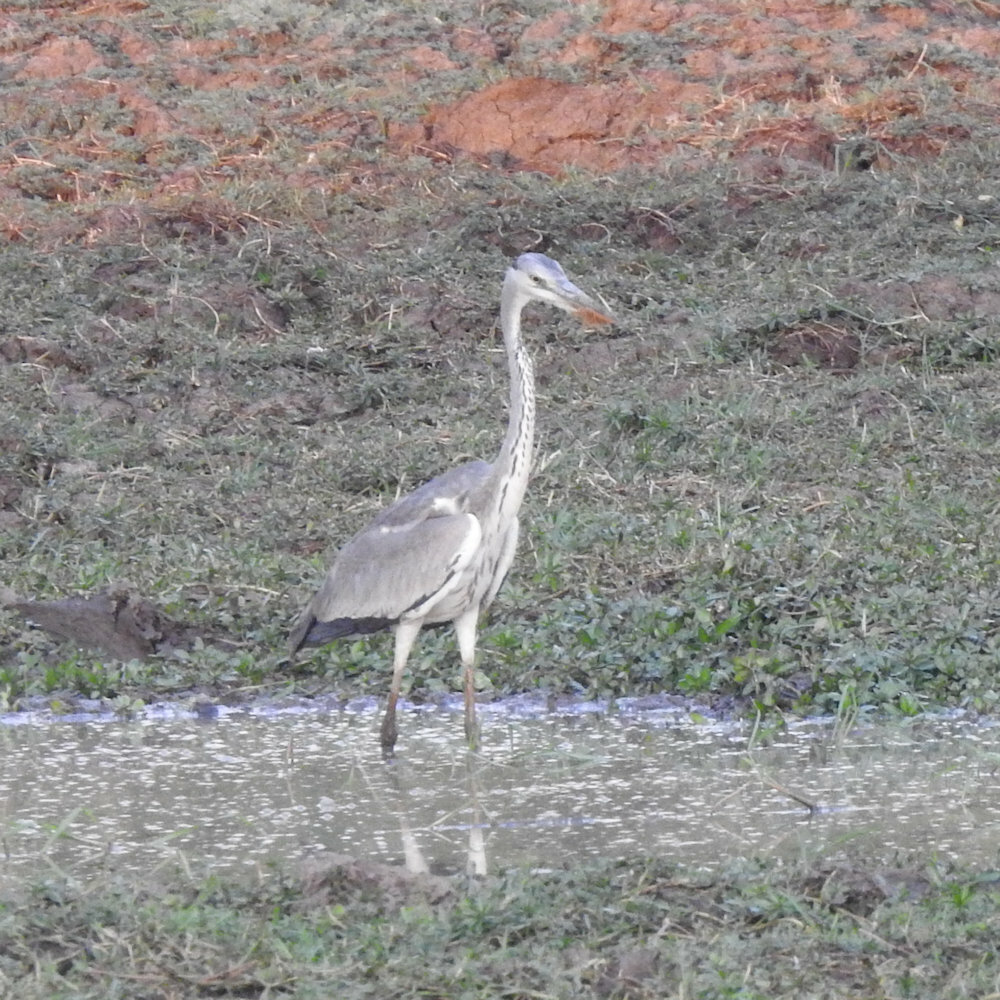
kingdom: Animalia
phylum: Chordata
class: Aves
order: Pelecaniformes
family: Ardeidae
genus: Ardea
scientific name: Ardea cinerea
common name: Grey heron
